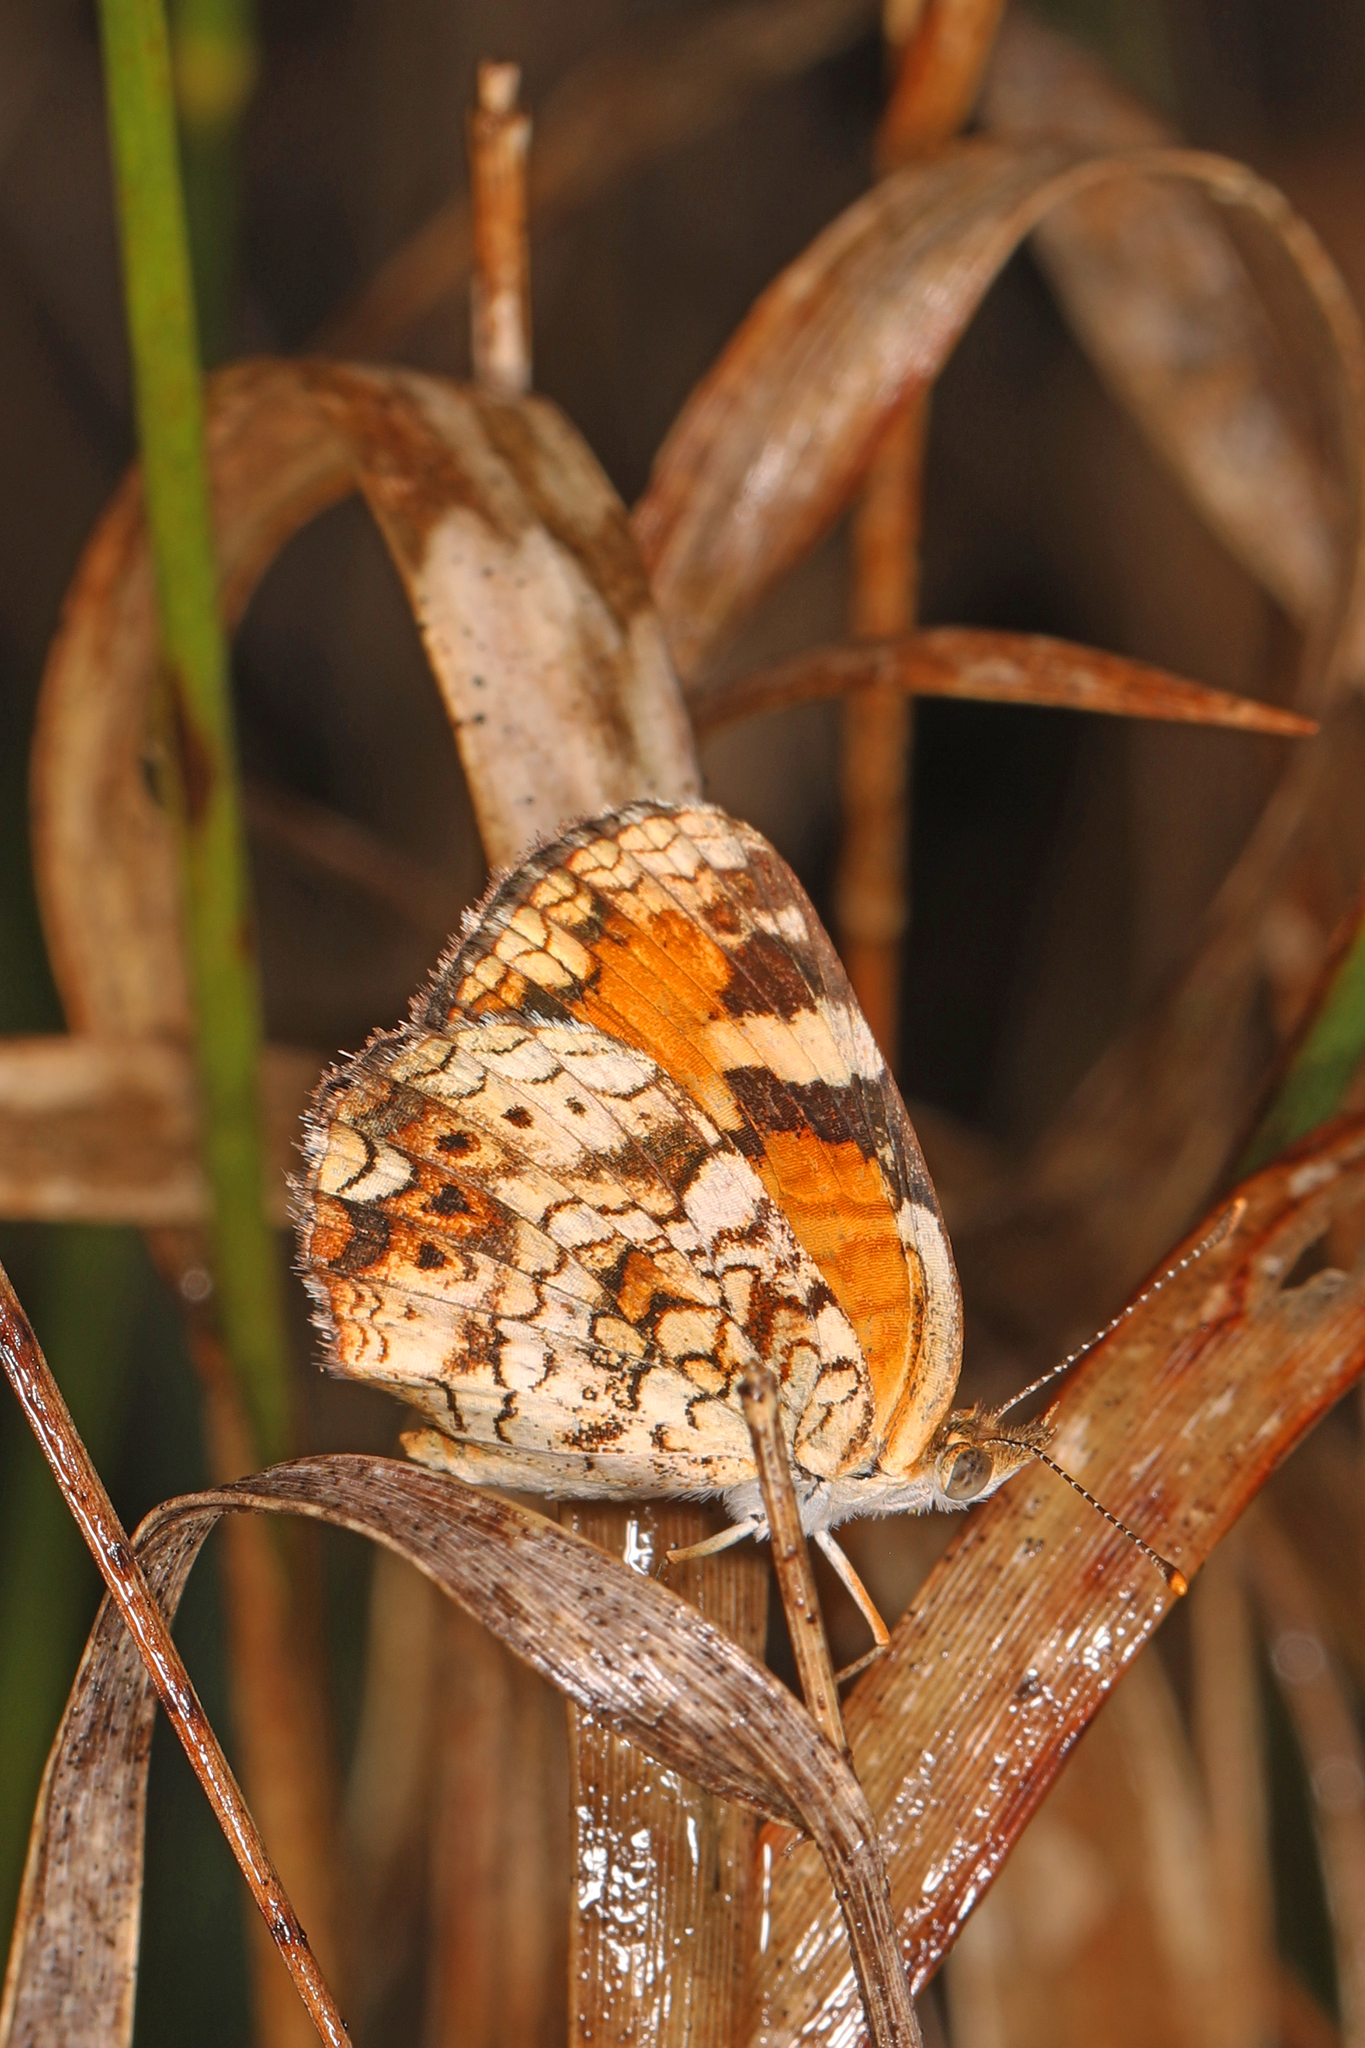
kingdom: Animalia
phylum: Arthropoda
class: Insecta
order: Lepidoptera
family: Nymphalidae
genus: Phyciodes
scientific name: Phyciodes phaon
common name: Phaon crescent
